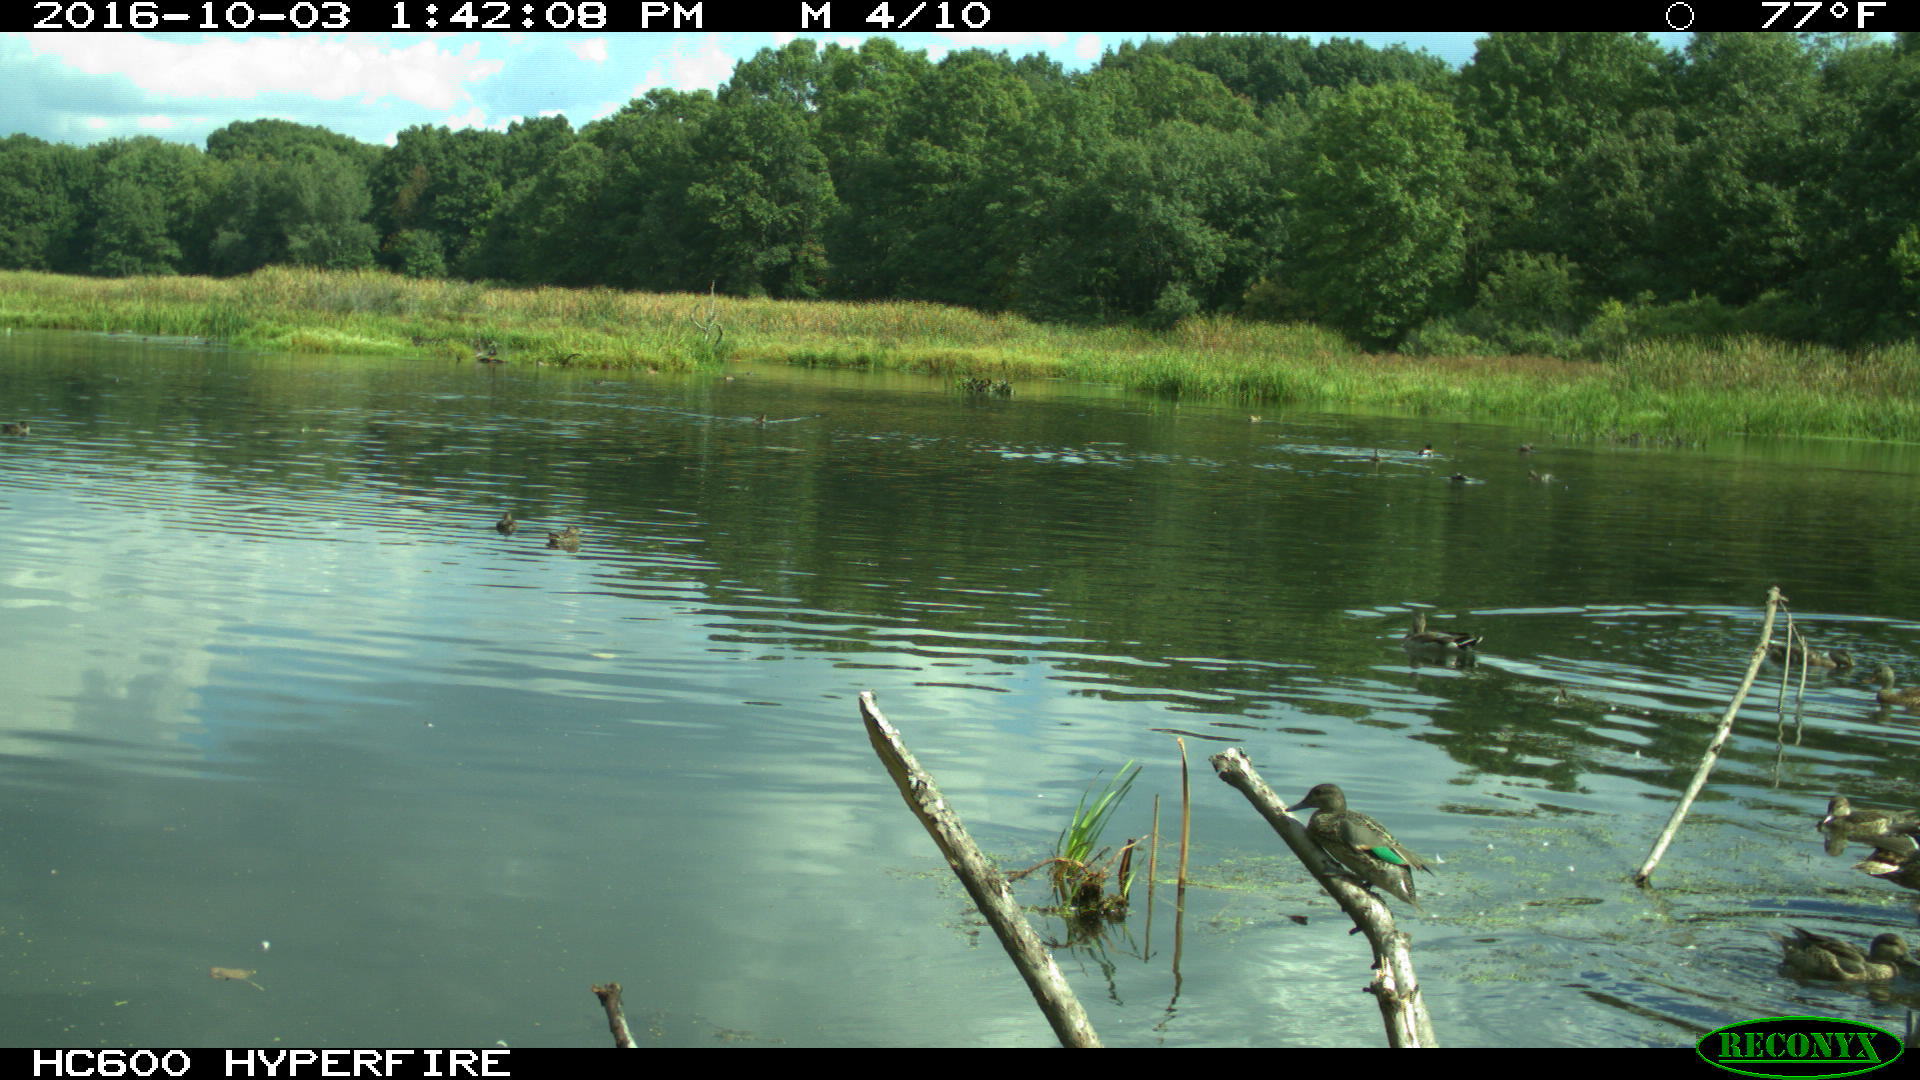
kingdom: Animalia
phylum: Chordata
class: Aves
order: Anseriformes
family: Anatidae
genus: Anas
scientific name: Anas crecca
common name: Eurasian teal
